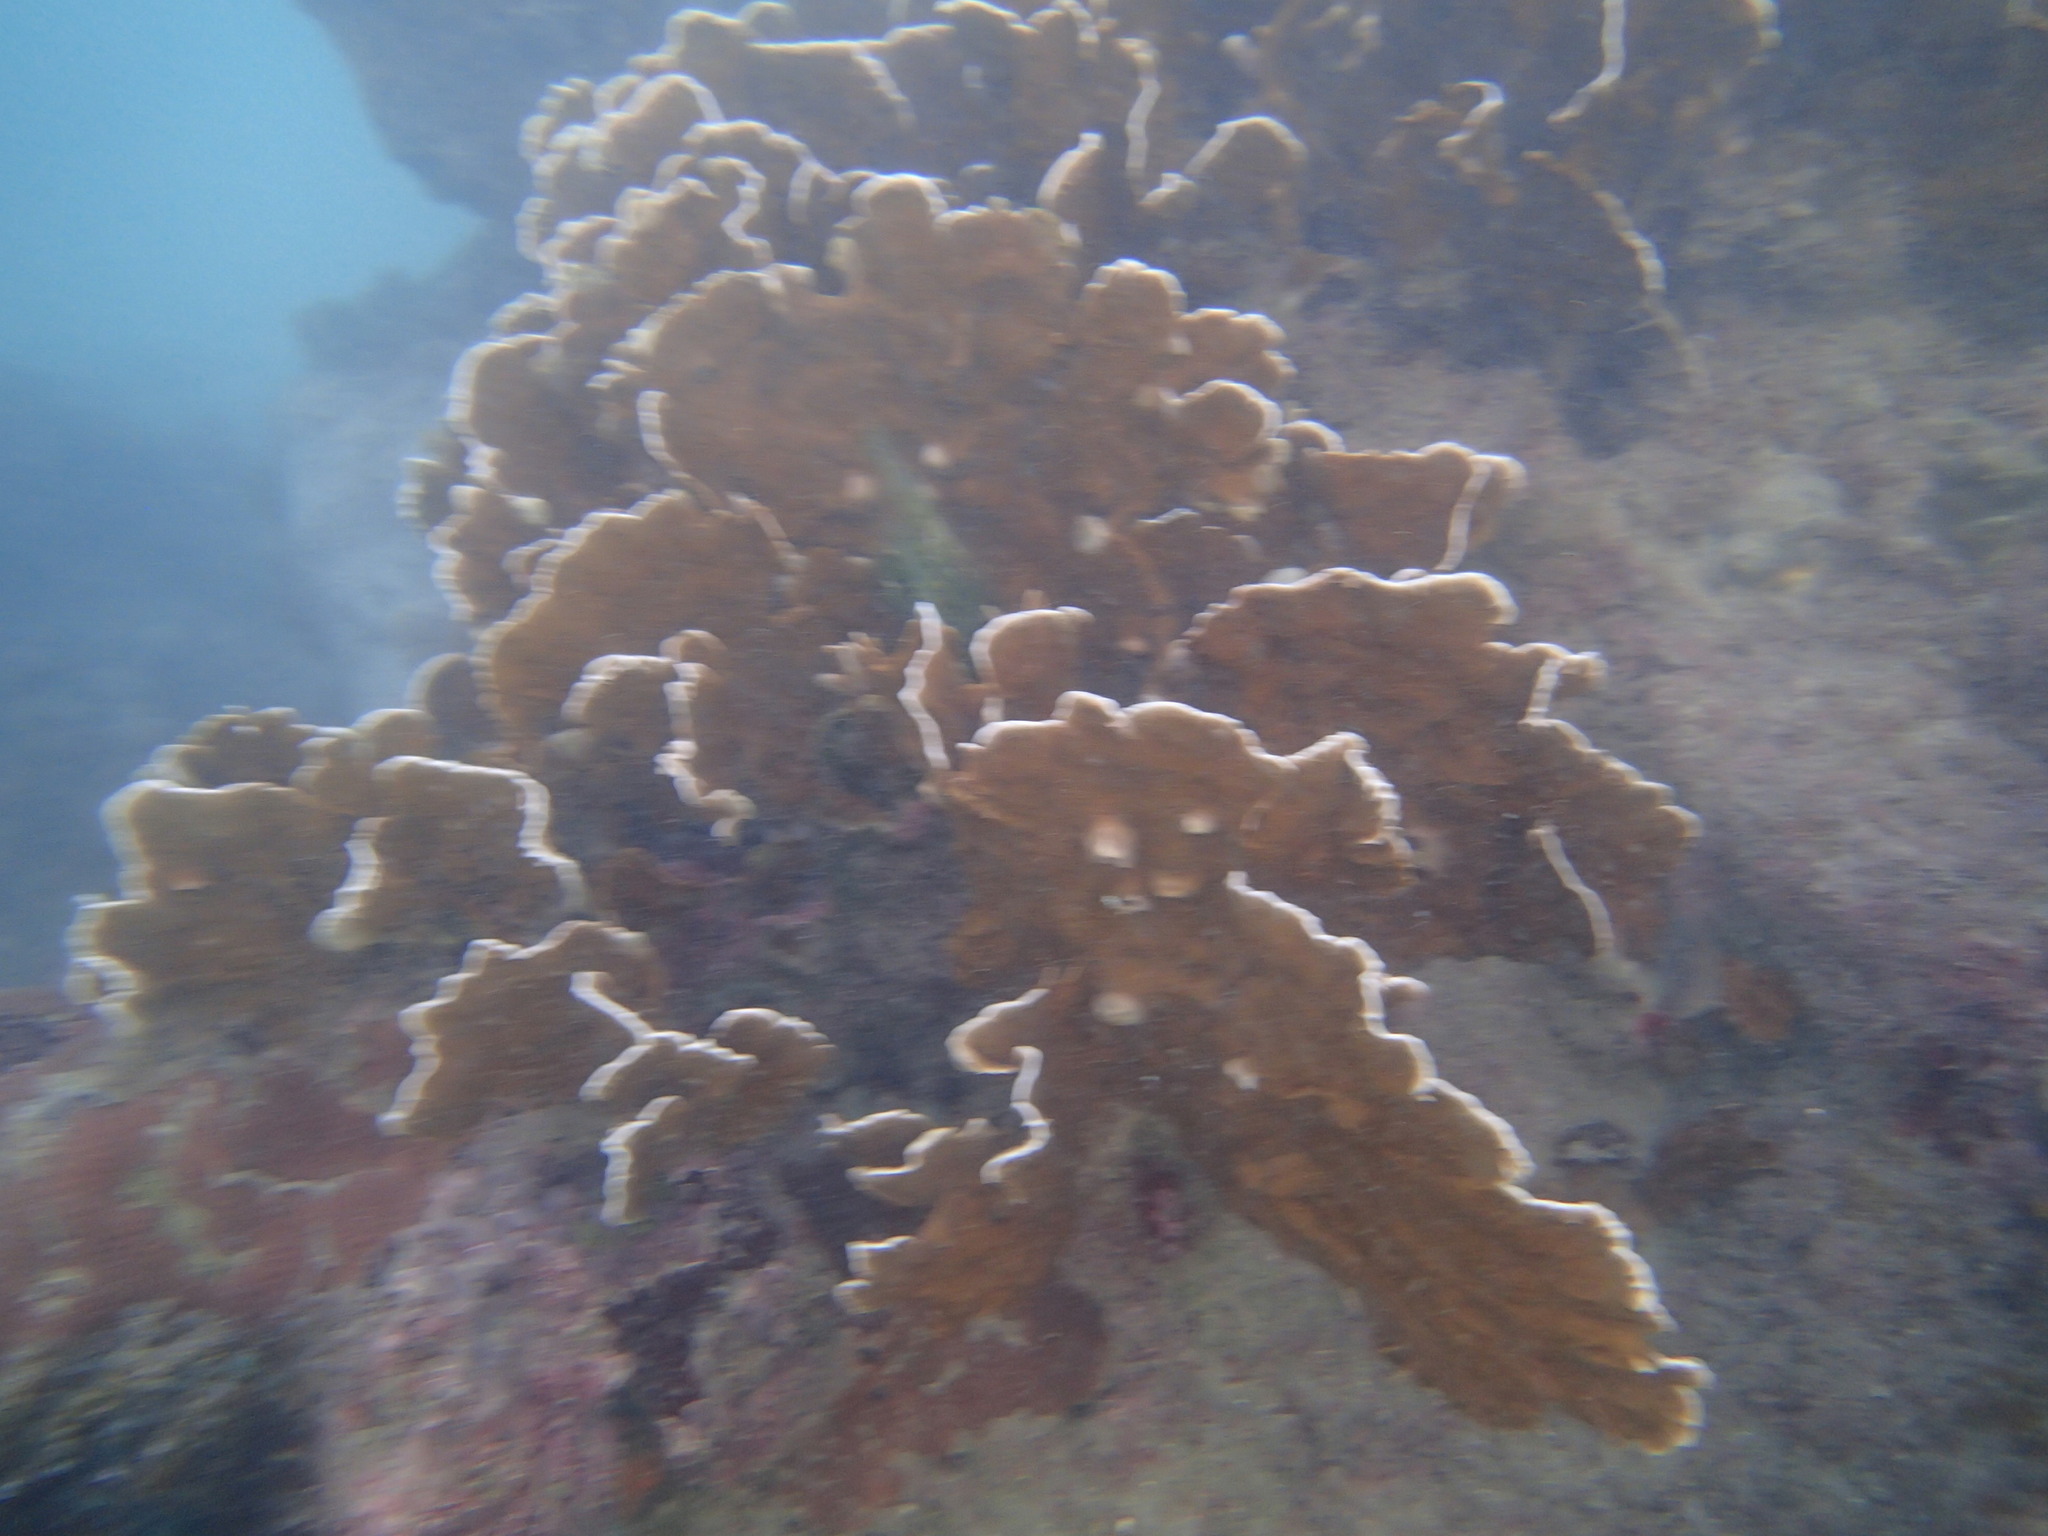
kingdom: Animalia
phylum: Cnidaria
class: Hydrozoa
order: Anthoathecata
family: Milleporidae
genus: Millepora
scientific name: Millepora complanata
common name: Bladed fire coral
